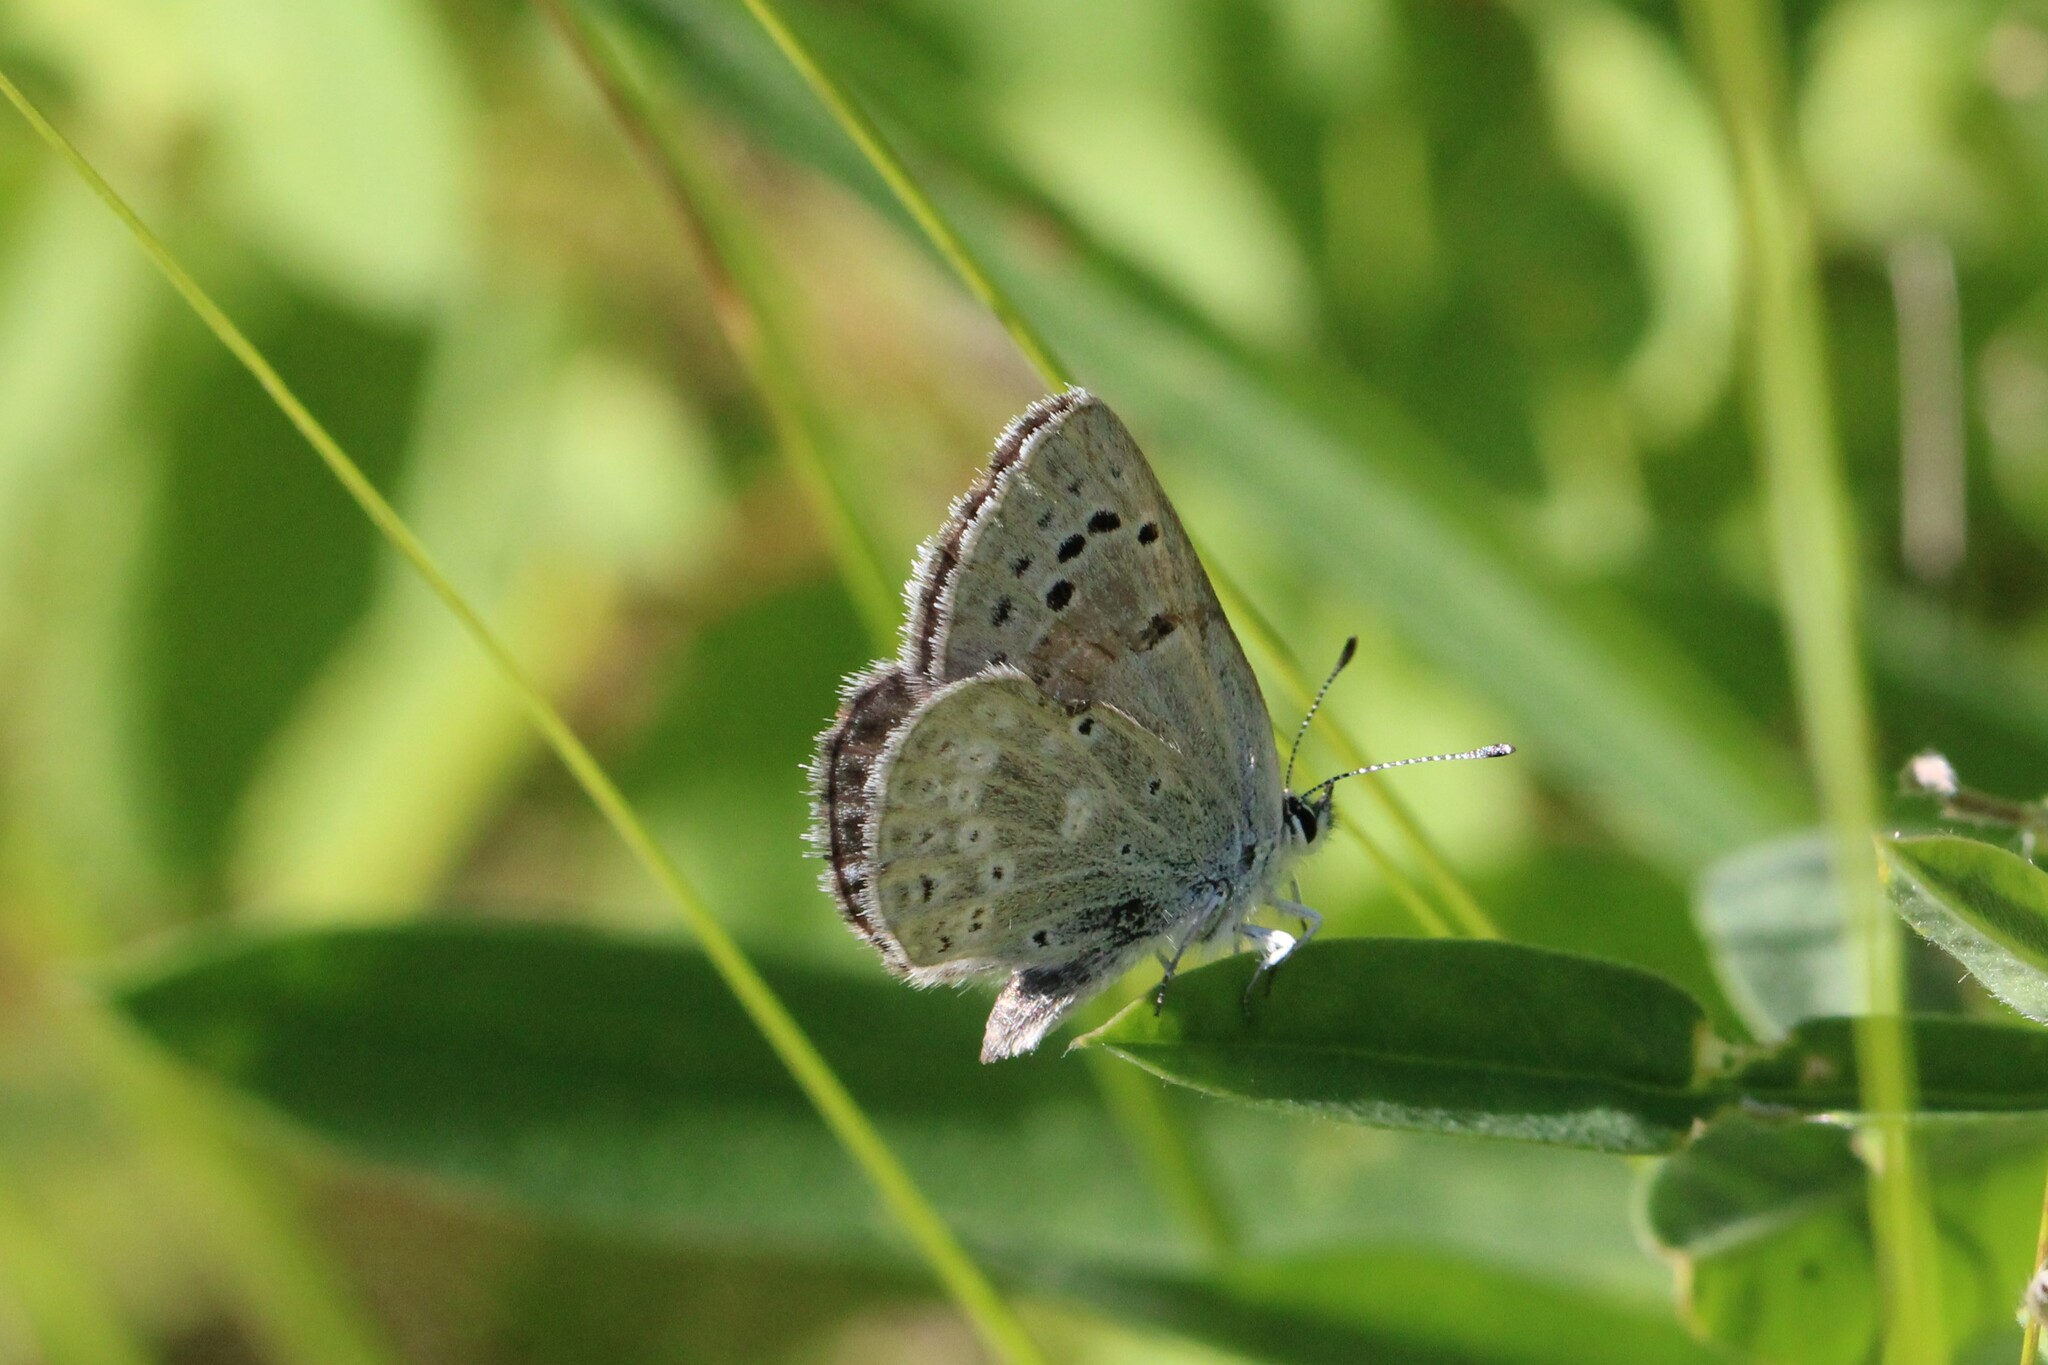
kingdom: Animalia
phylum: Arthropoda
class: Insecta
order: Lepidoptera
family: Lycaenidae
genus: Icaricia
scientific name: Icaricia icarioides
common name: Boisduval's blue
